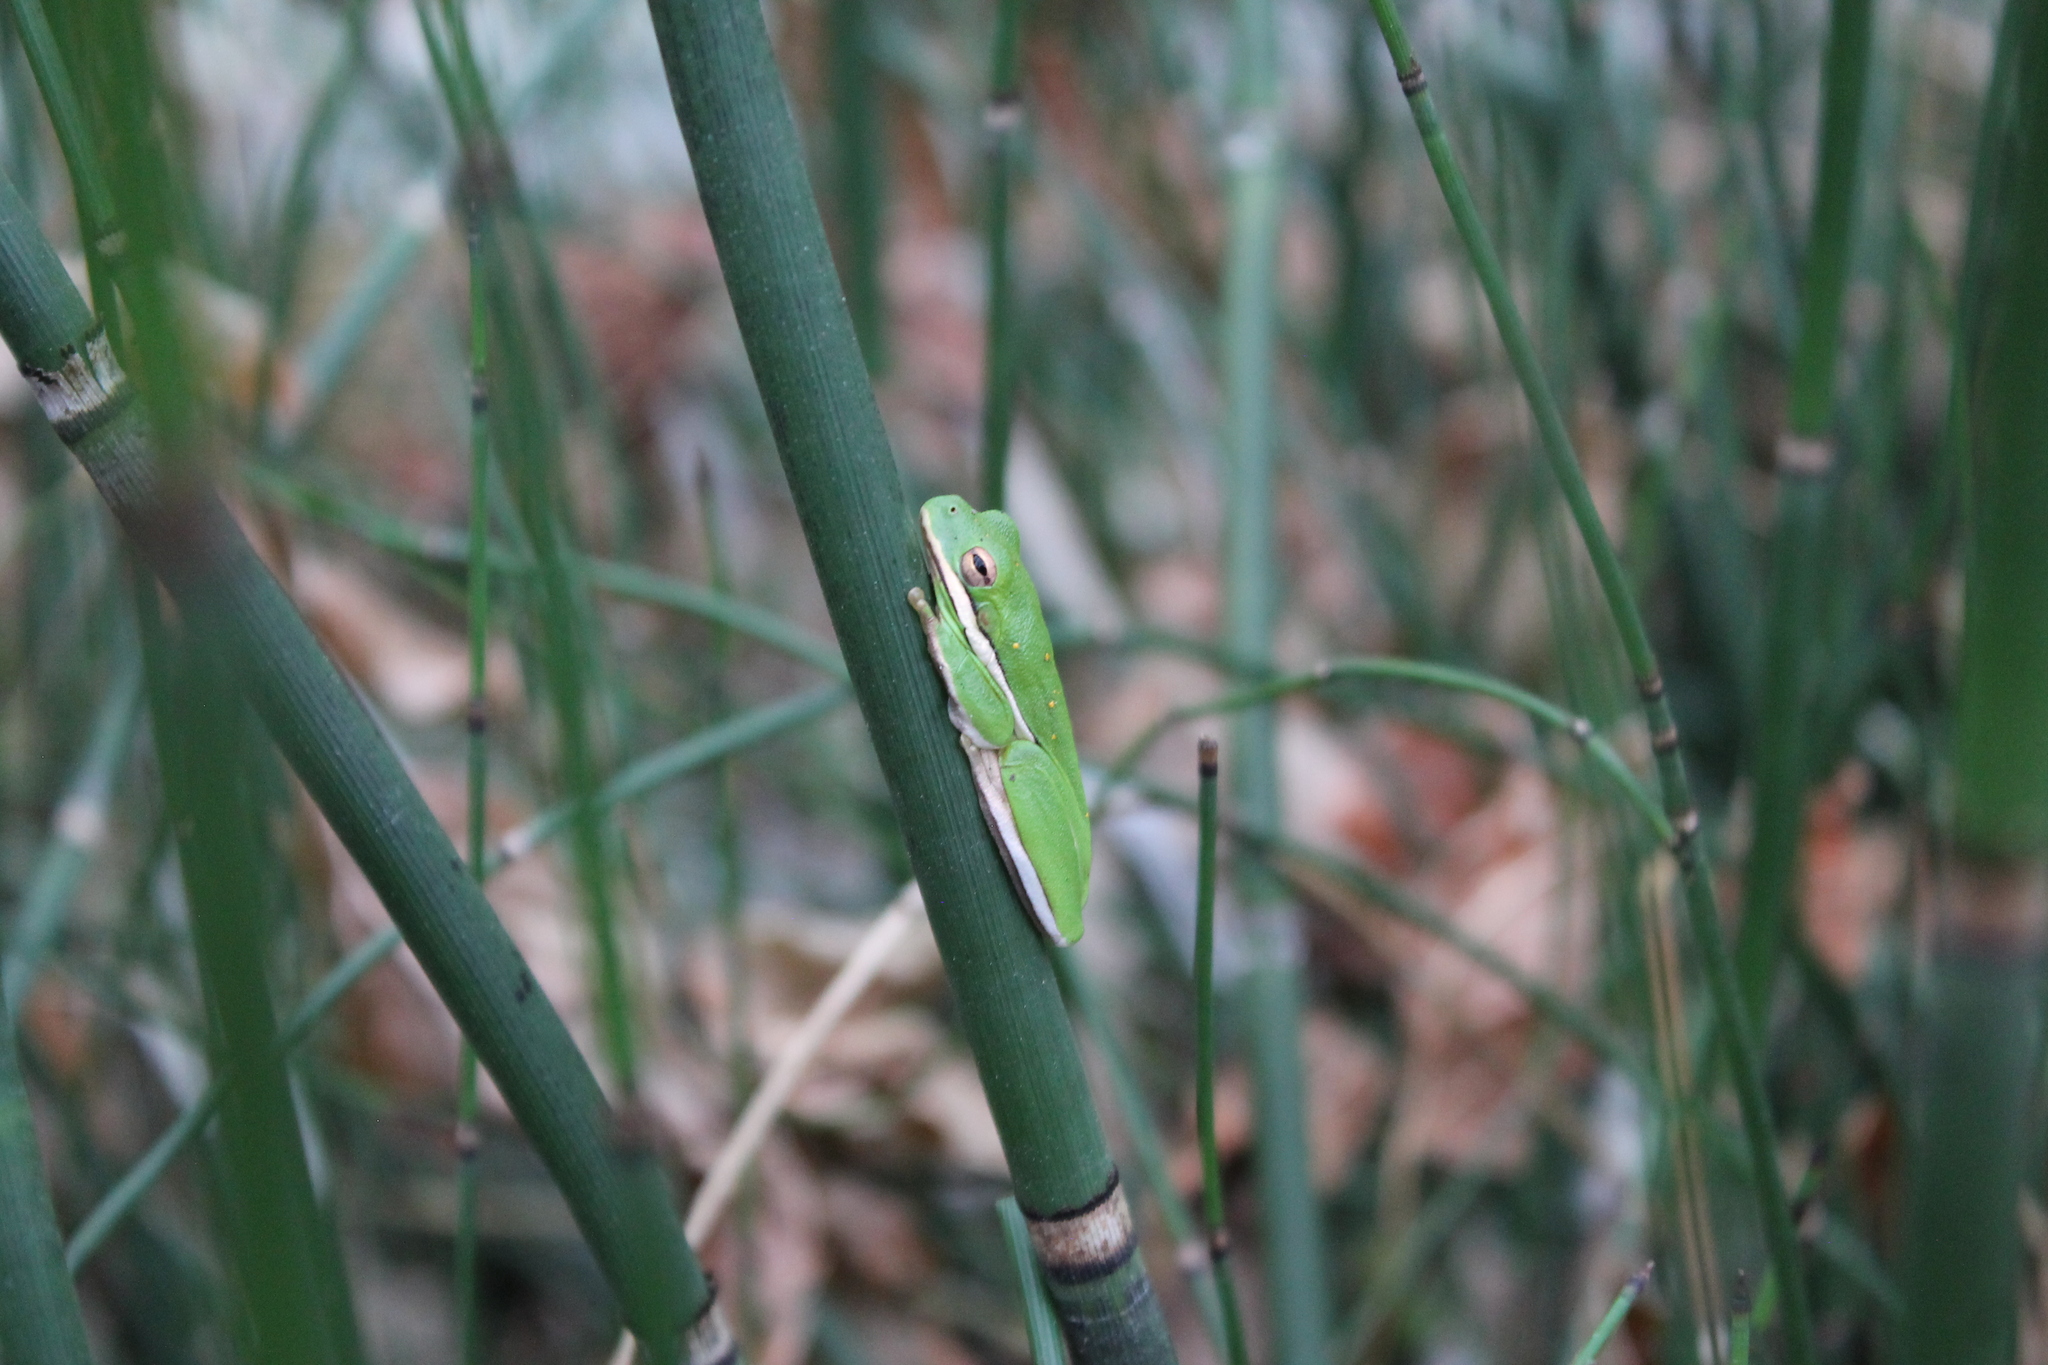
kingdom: Animalia
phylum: Chordata
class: Amphibia
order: Anura
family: Hylidae
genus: Dryophytes
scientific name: Dryophytes cinereus
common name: Green treefrog
